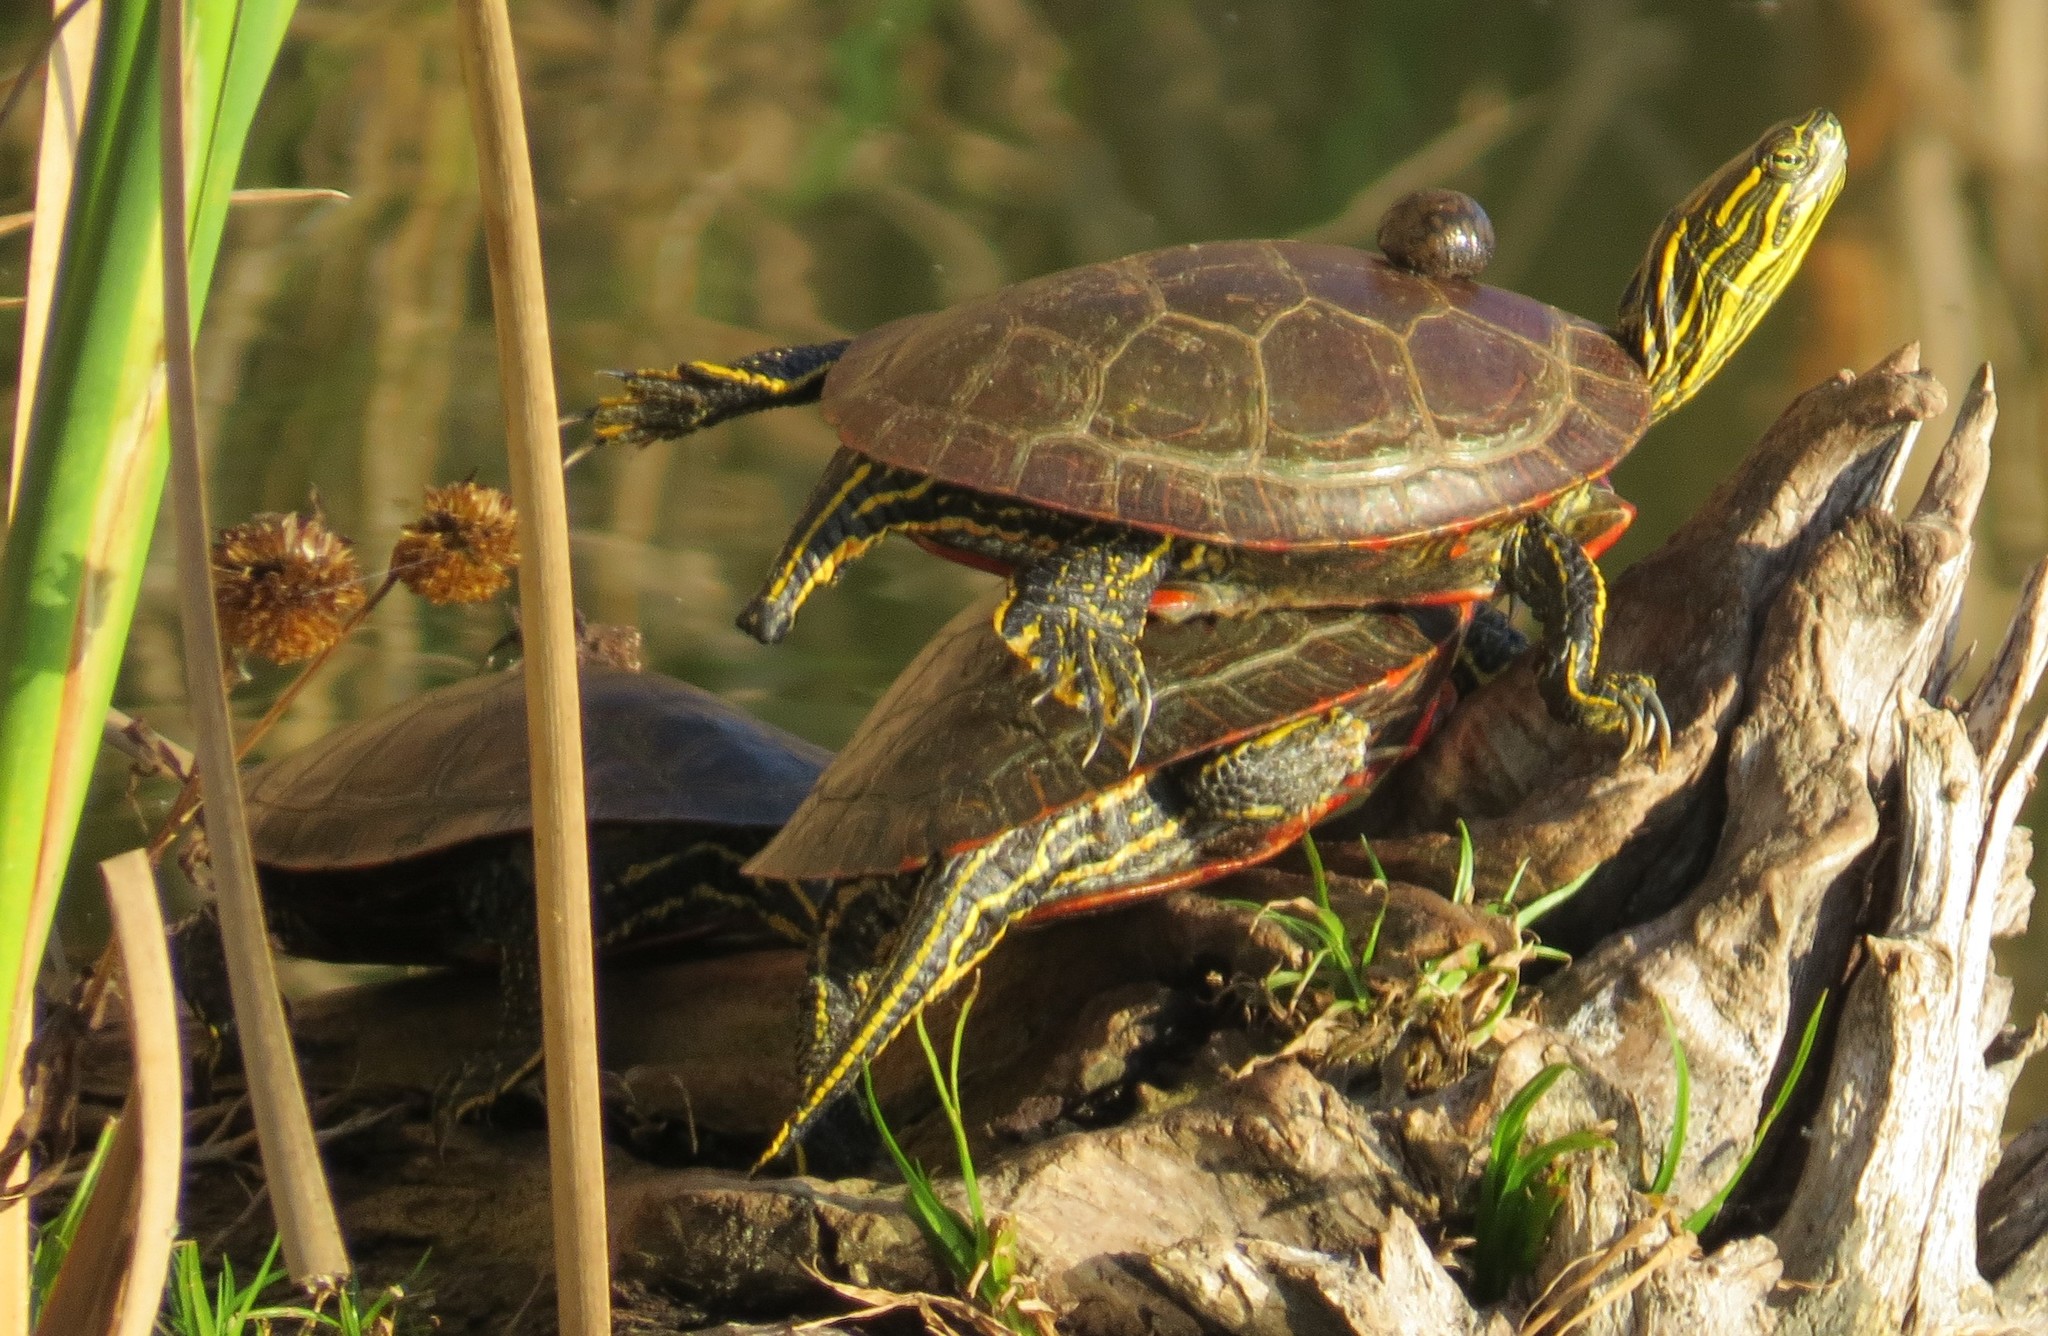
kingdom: Animalia
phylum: Chordata
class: Testudines
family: Emydidae
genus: Chrysemys
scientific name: Chrysemys picta
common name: Painted turtle
